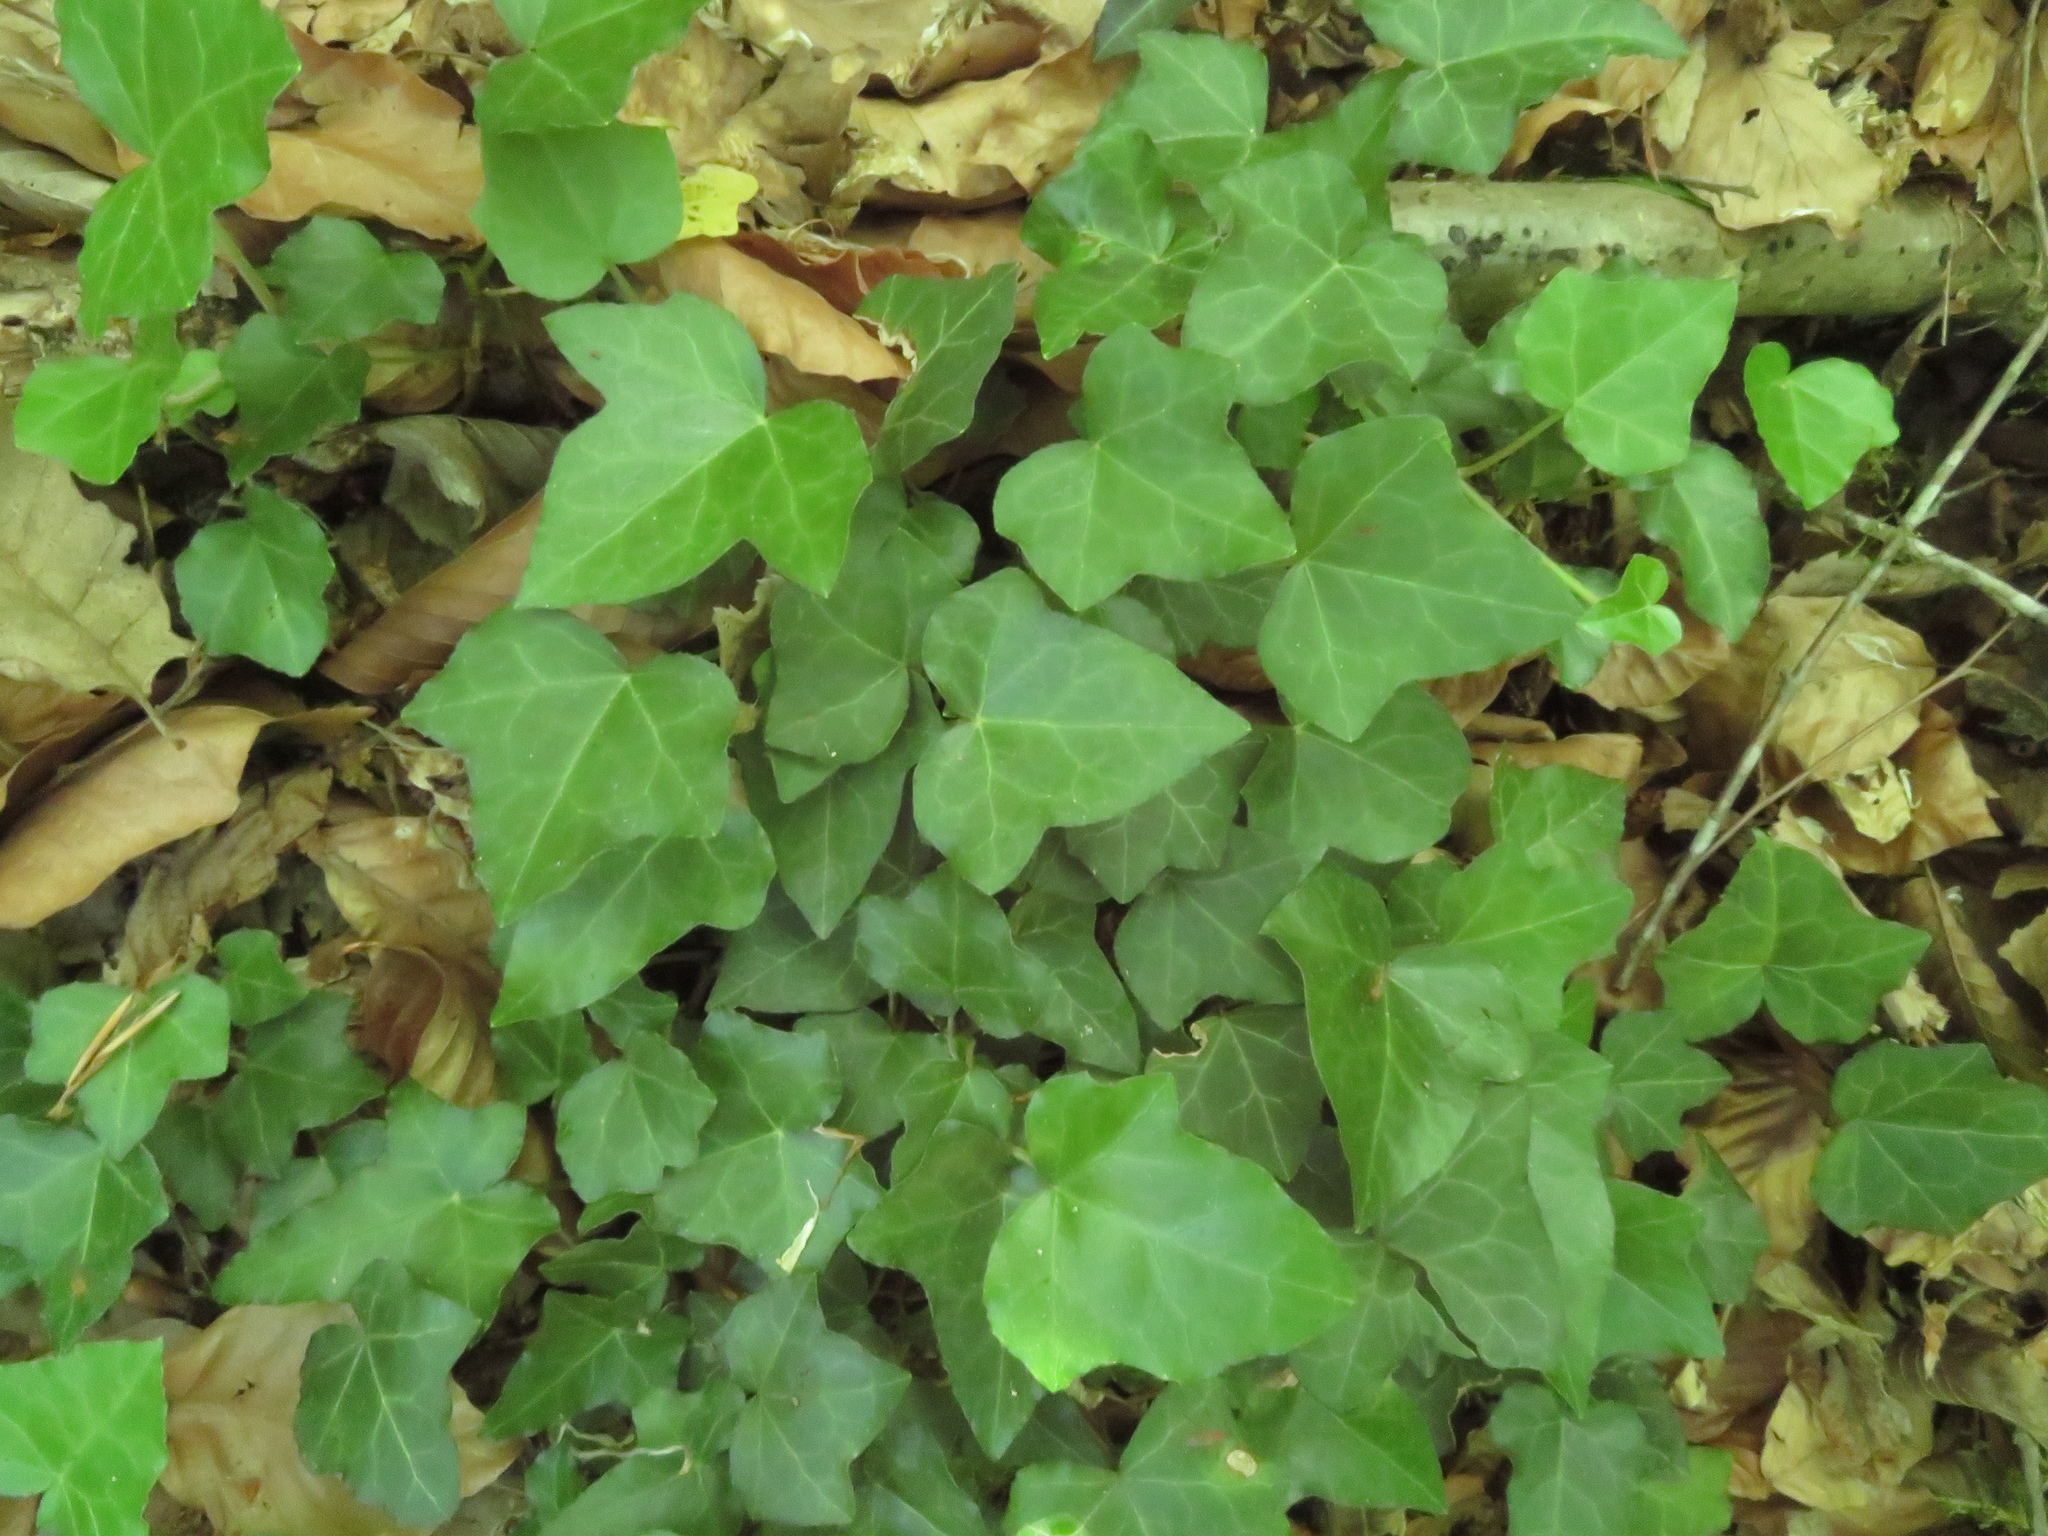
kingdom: Plantae
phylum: Tracheophyta
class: Magnoliopsida
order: Apiales
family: Araliaceae
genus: Hedera
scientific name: Hedera helix
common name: Ivy
